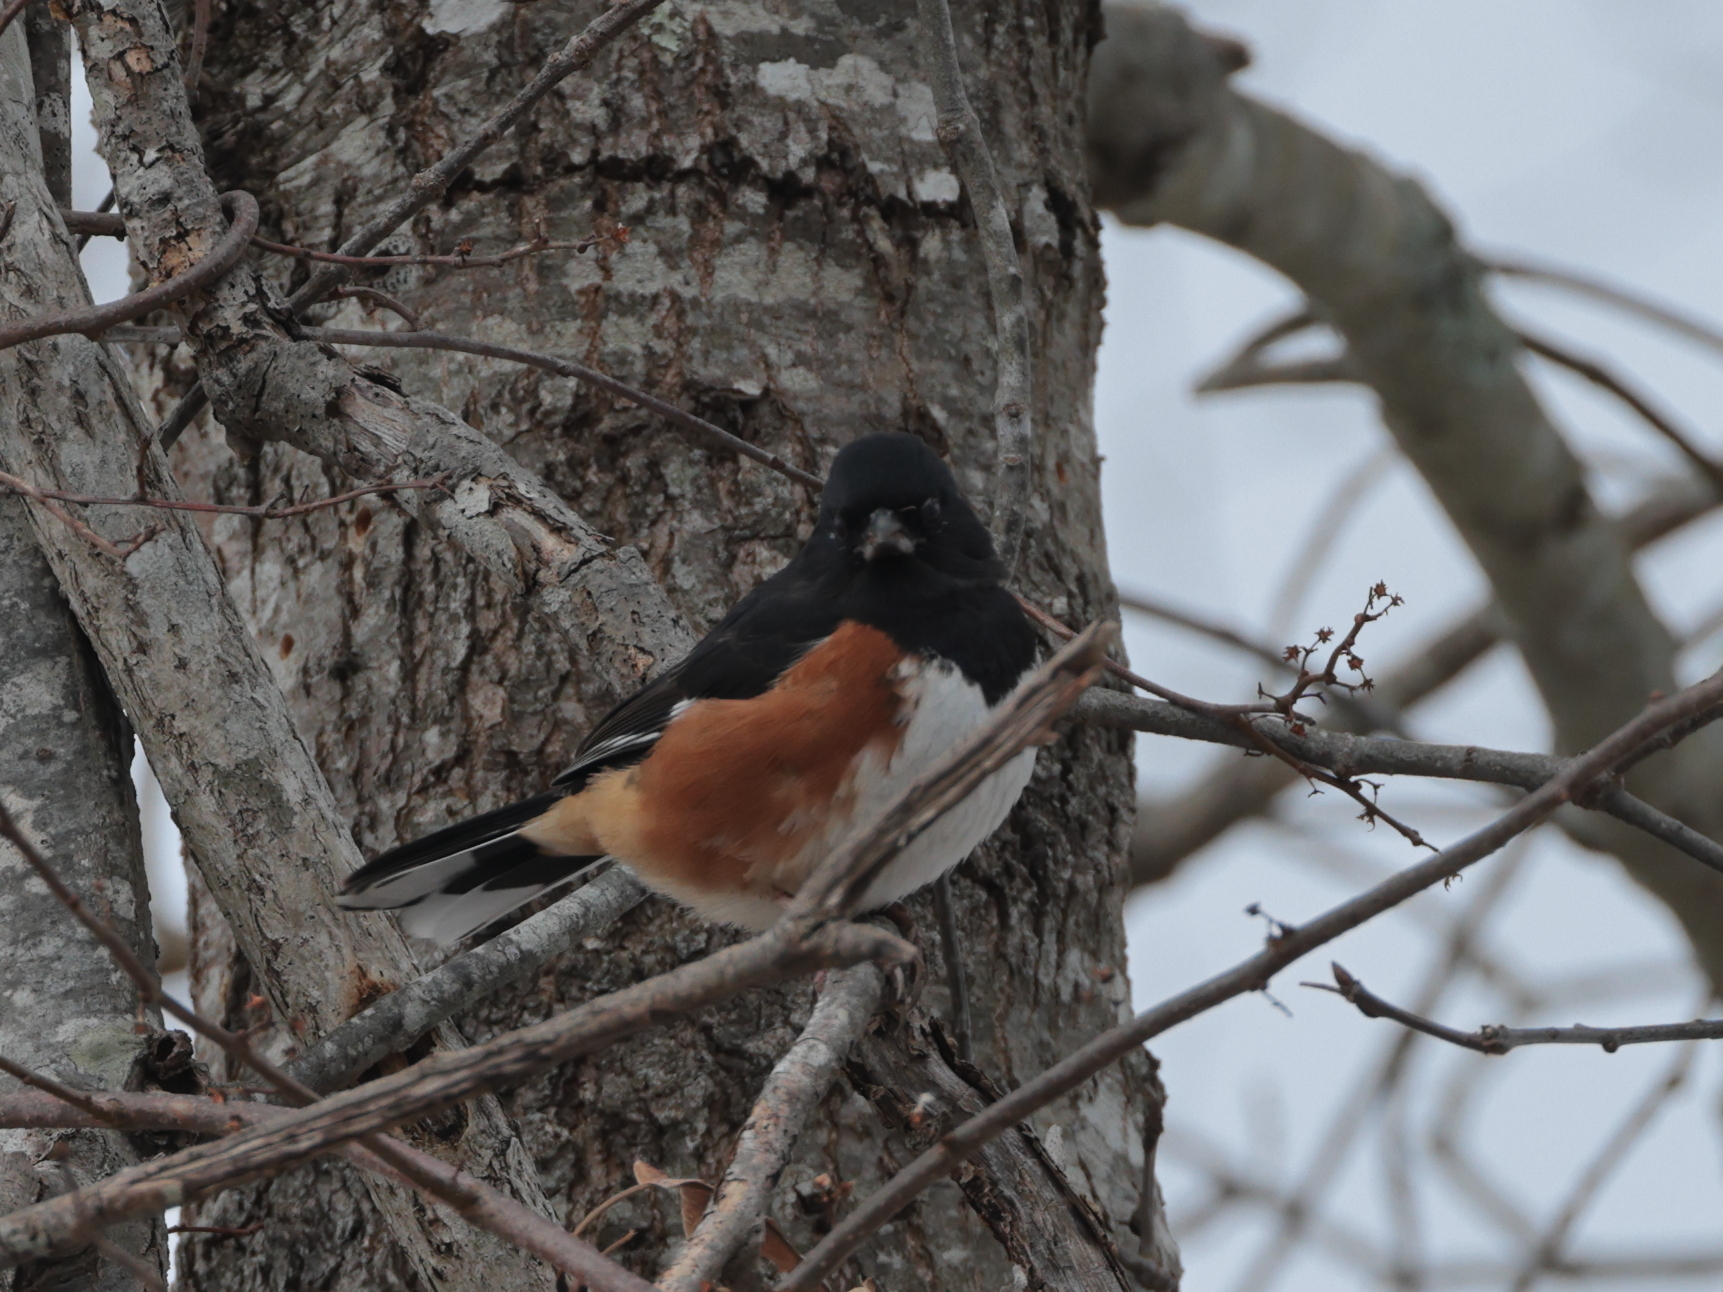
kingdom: Animalia
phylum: Chordata
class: Aves
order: Passeriformes
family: Passerellidae
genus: Pipilo
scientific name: Pipilo erythrophthalmus
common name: Eastern towhee
